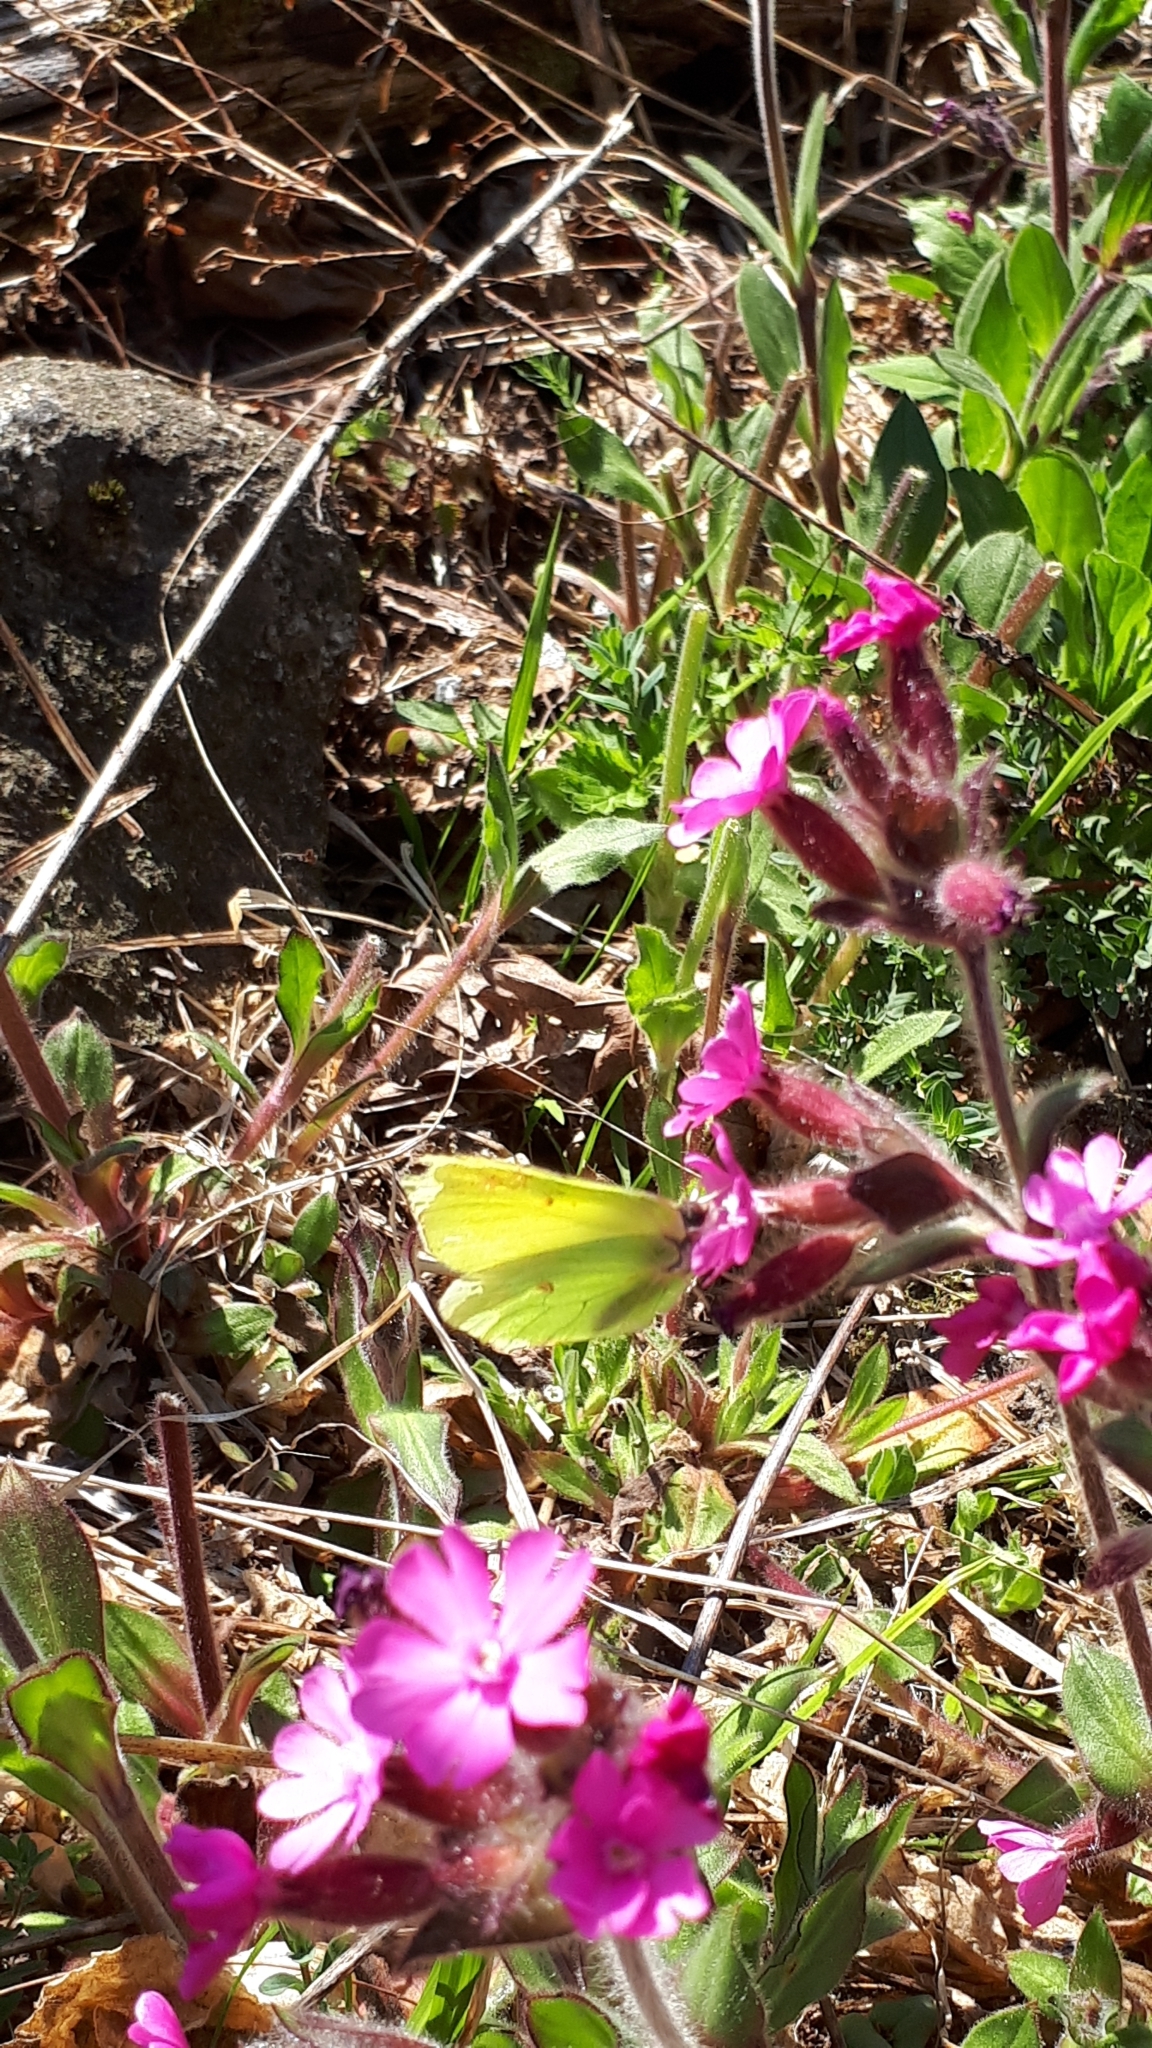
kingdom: Animalia
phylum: Arthropoda
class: Insecta
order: Lepidoptera
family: Pieridae
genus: Gonepteryx
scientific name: Gonepteryx rhamni
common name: Brimstone
